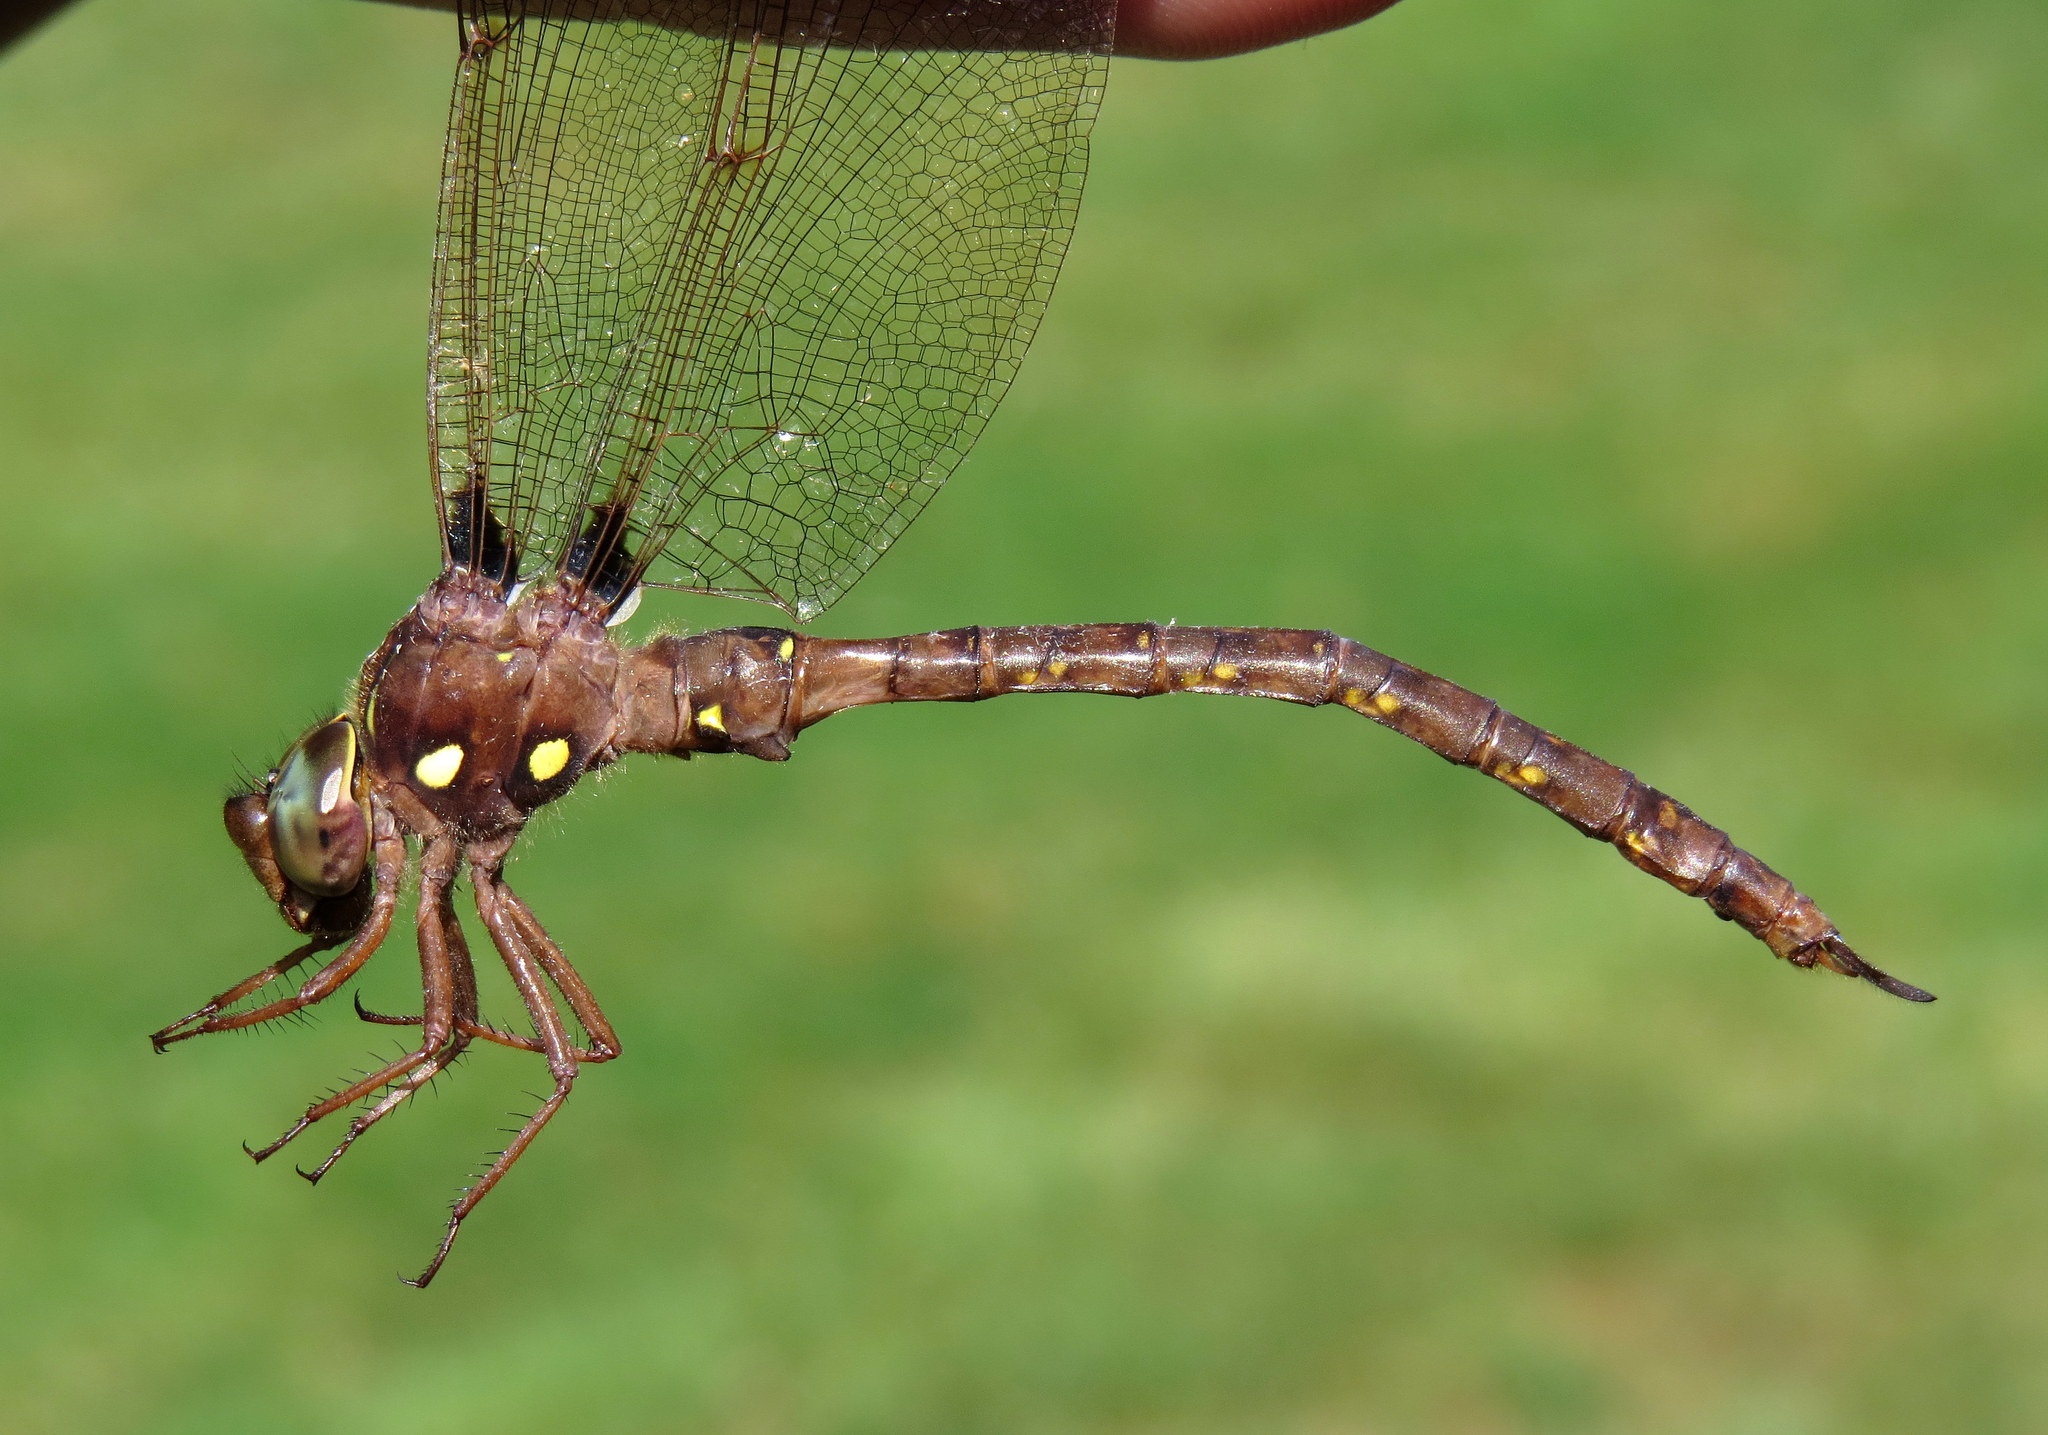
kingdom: Animalia
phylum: Arthropoda
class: Insecta
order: Odonata
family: Aeshnidae
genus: Boyeria
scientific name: Boyeria vinosa
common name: Fawn darner
